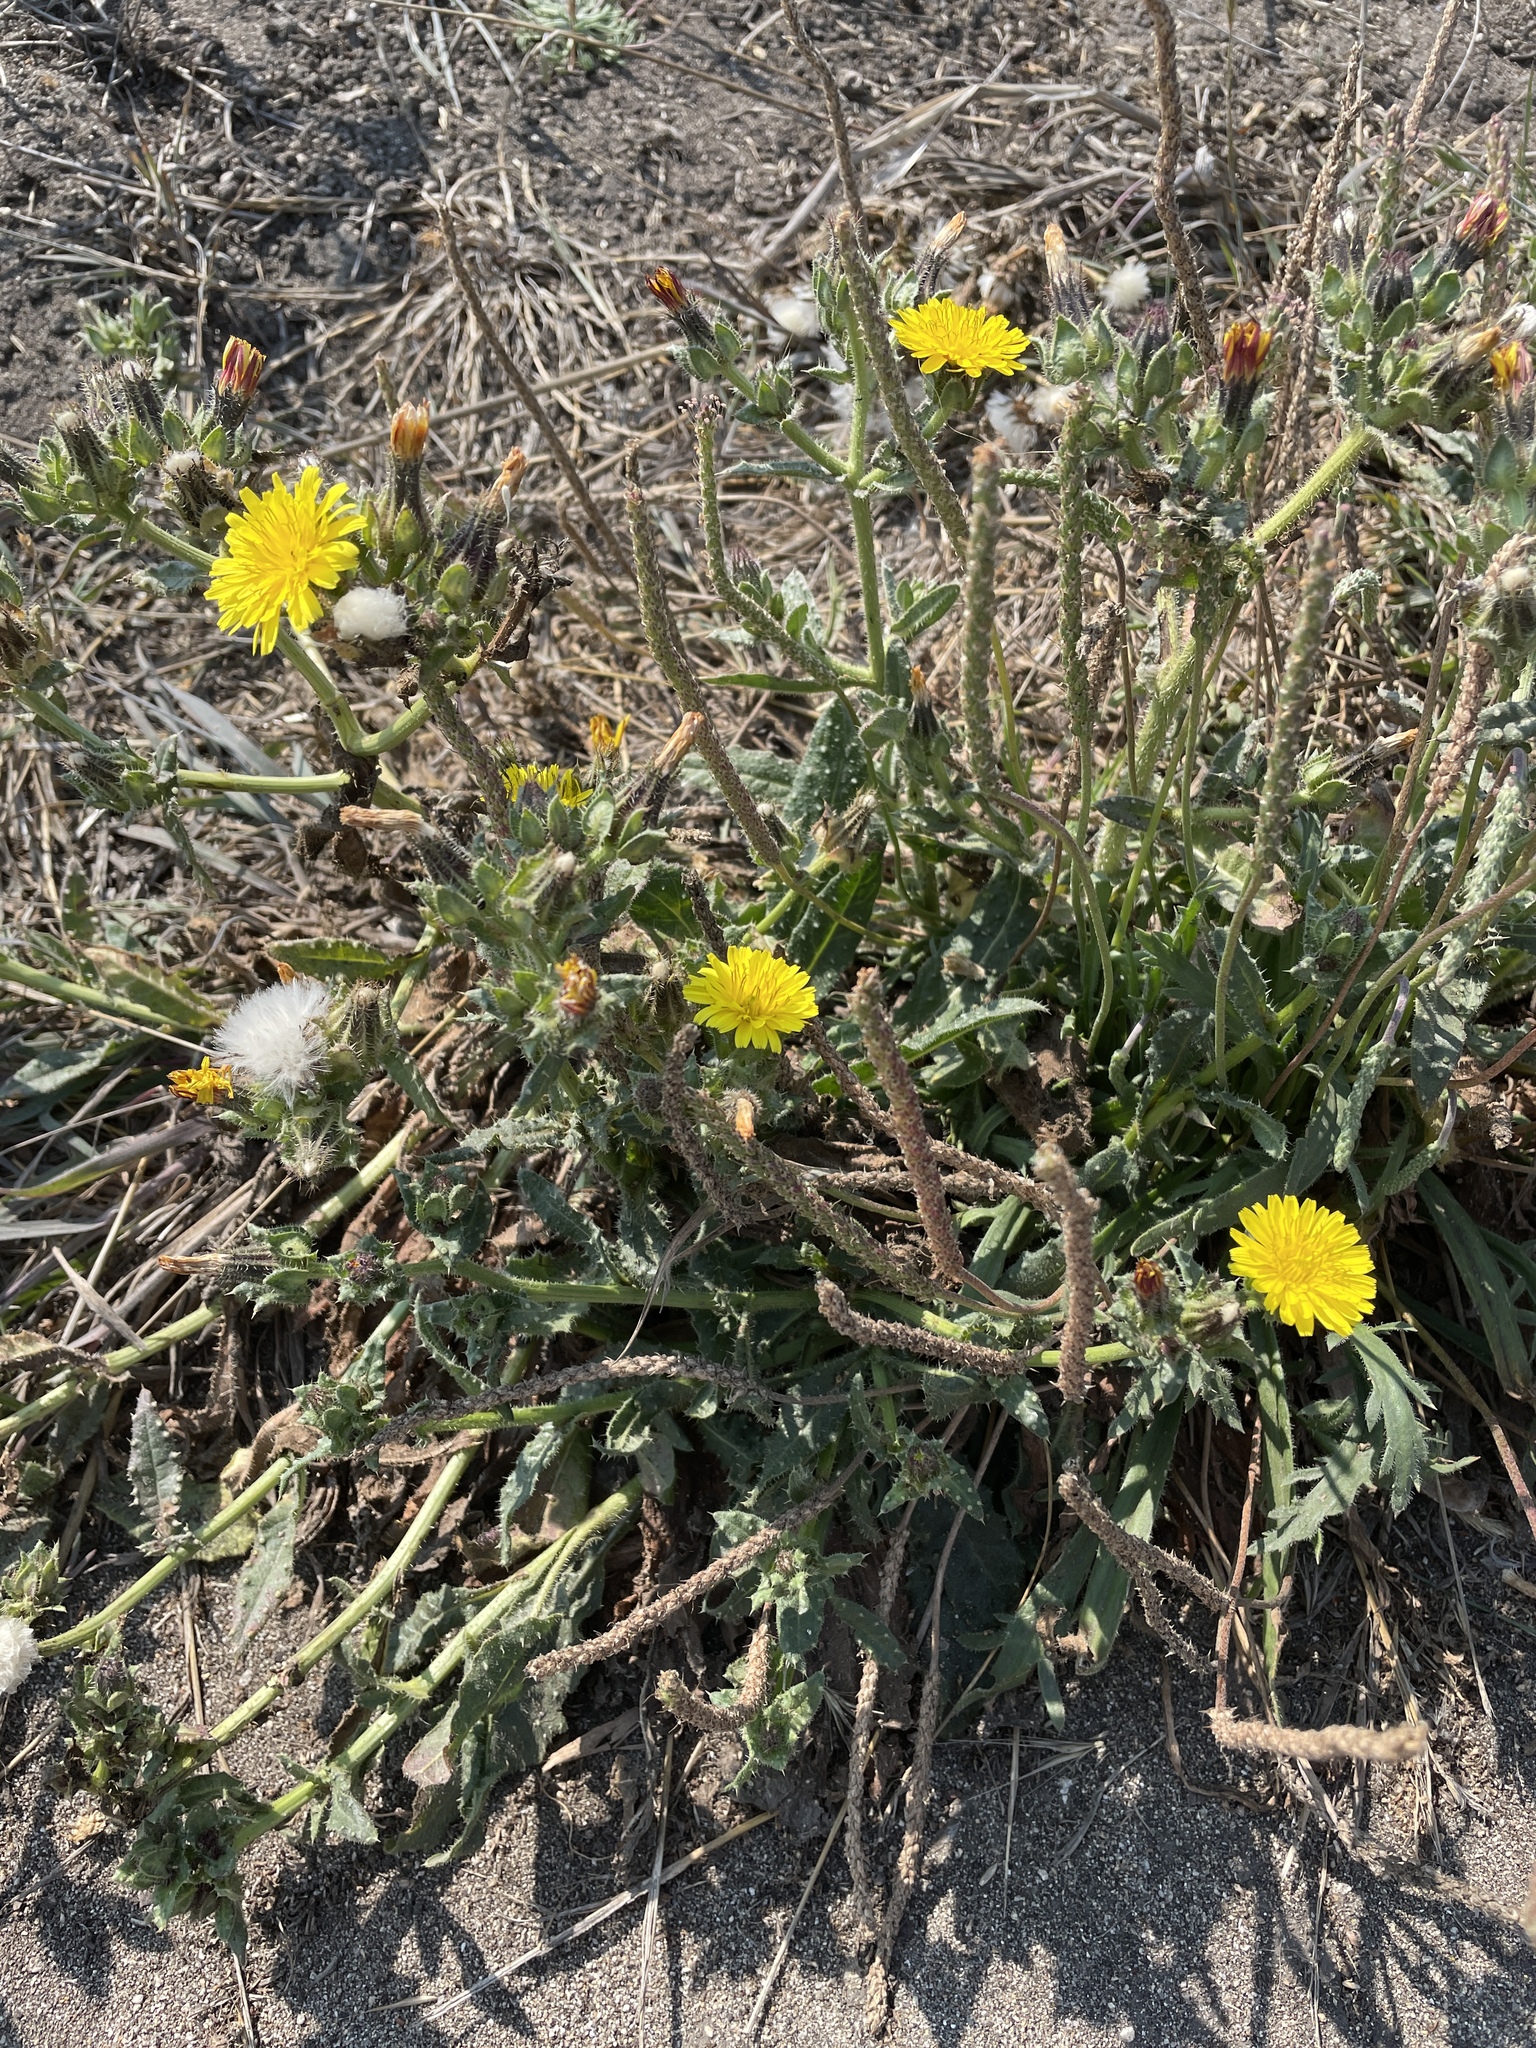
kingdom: Plantae
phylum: Tracheophyta
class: Magnoliopsida
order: Asterales
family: Asteraceae
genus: Helminthotheca
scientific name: Helminthotheca echioides
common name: Ox-tongue
